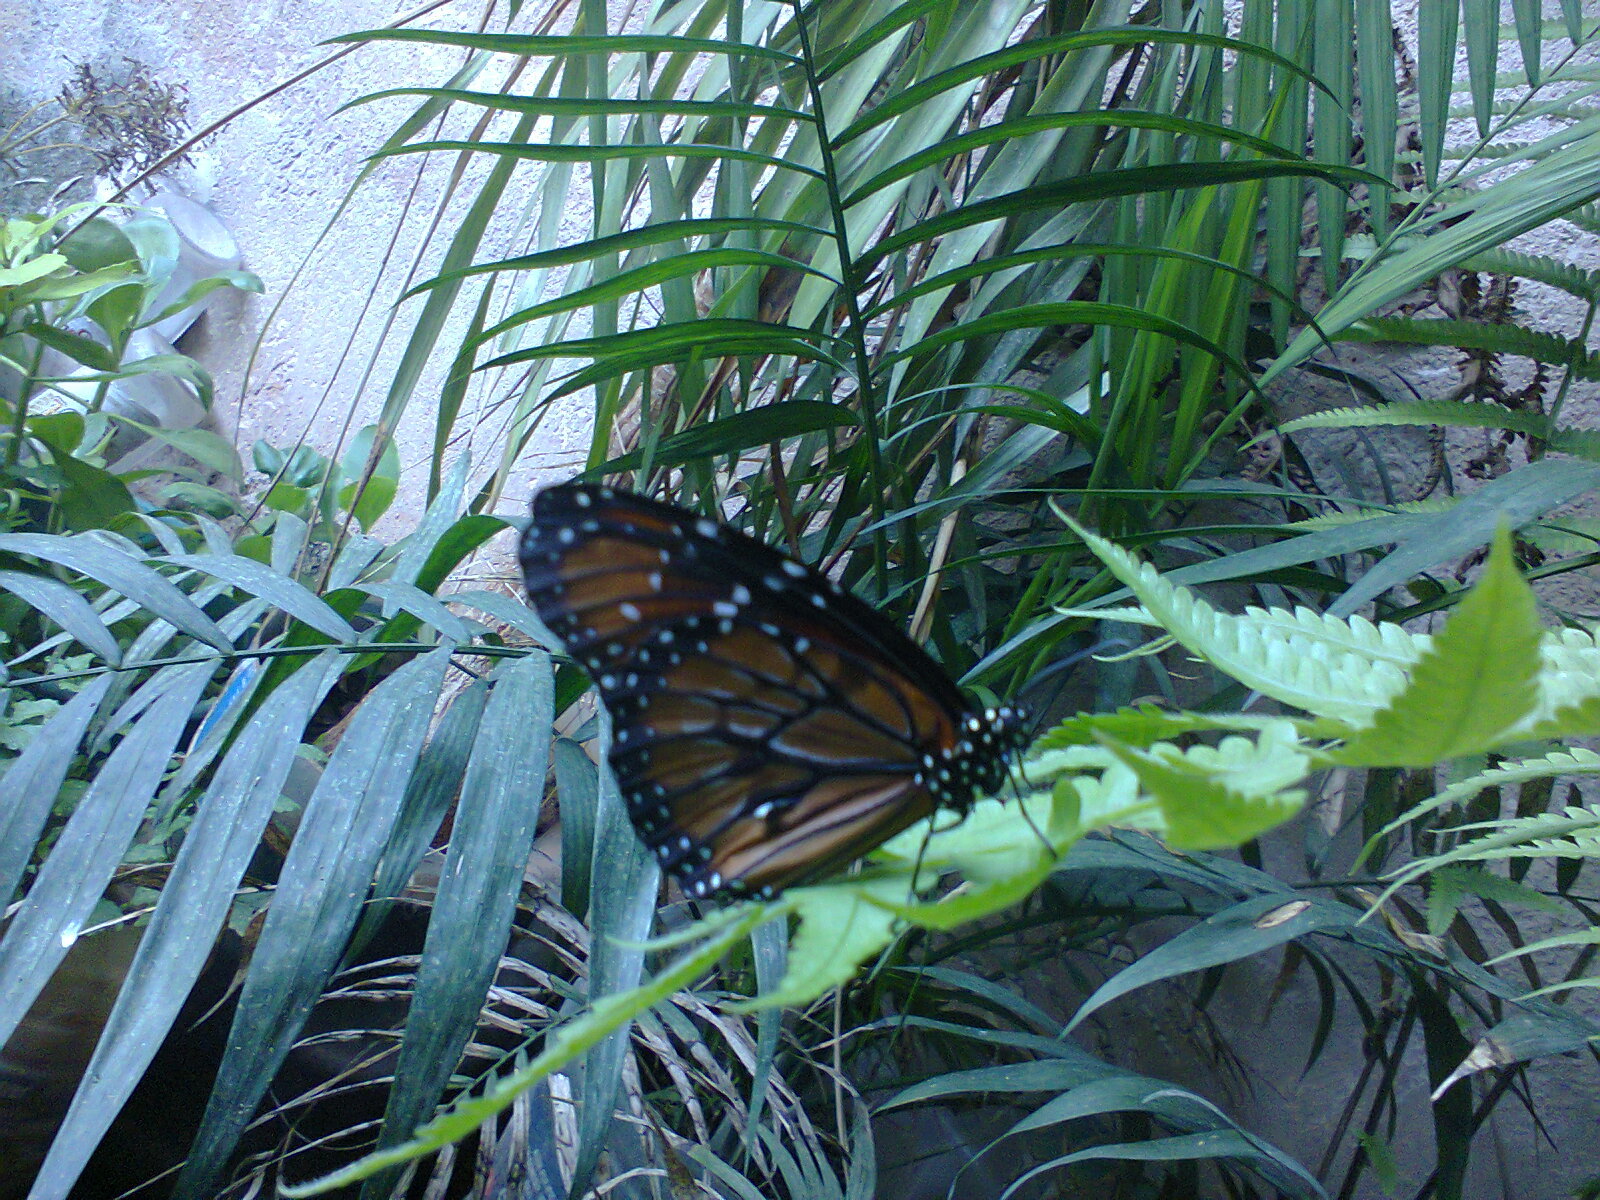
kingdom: Animalia
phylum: Arthropoda
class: Insecta
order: Lepidoptera
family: Nymphalidae
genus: Danaus
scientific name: Danaus eresimus
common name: Soldier
